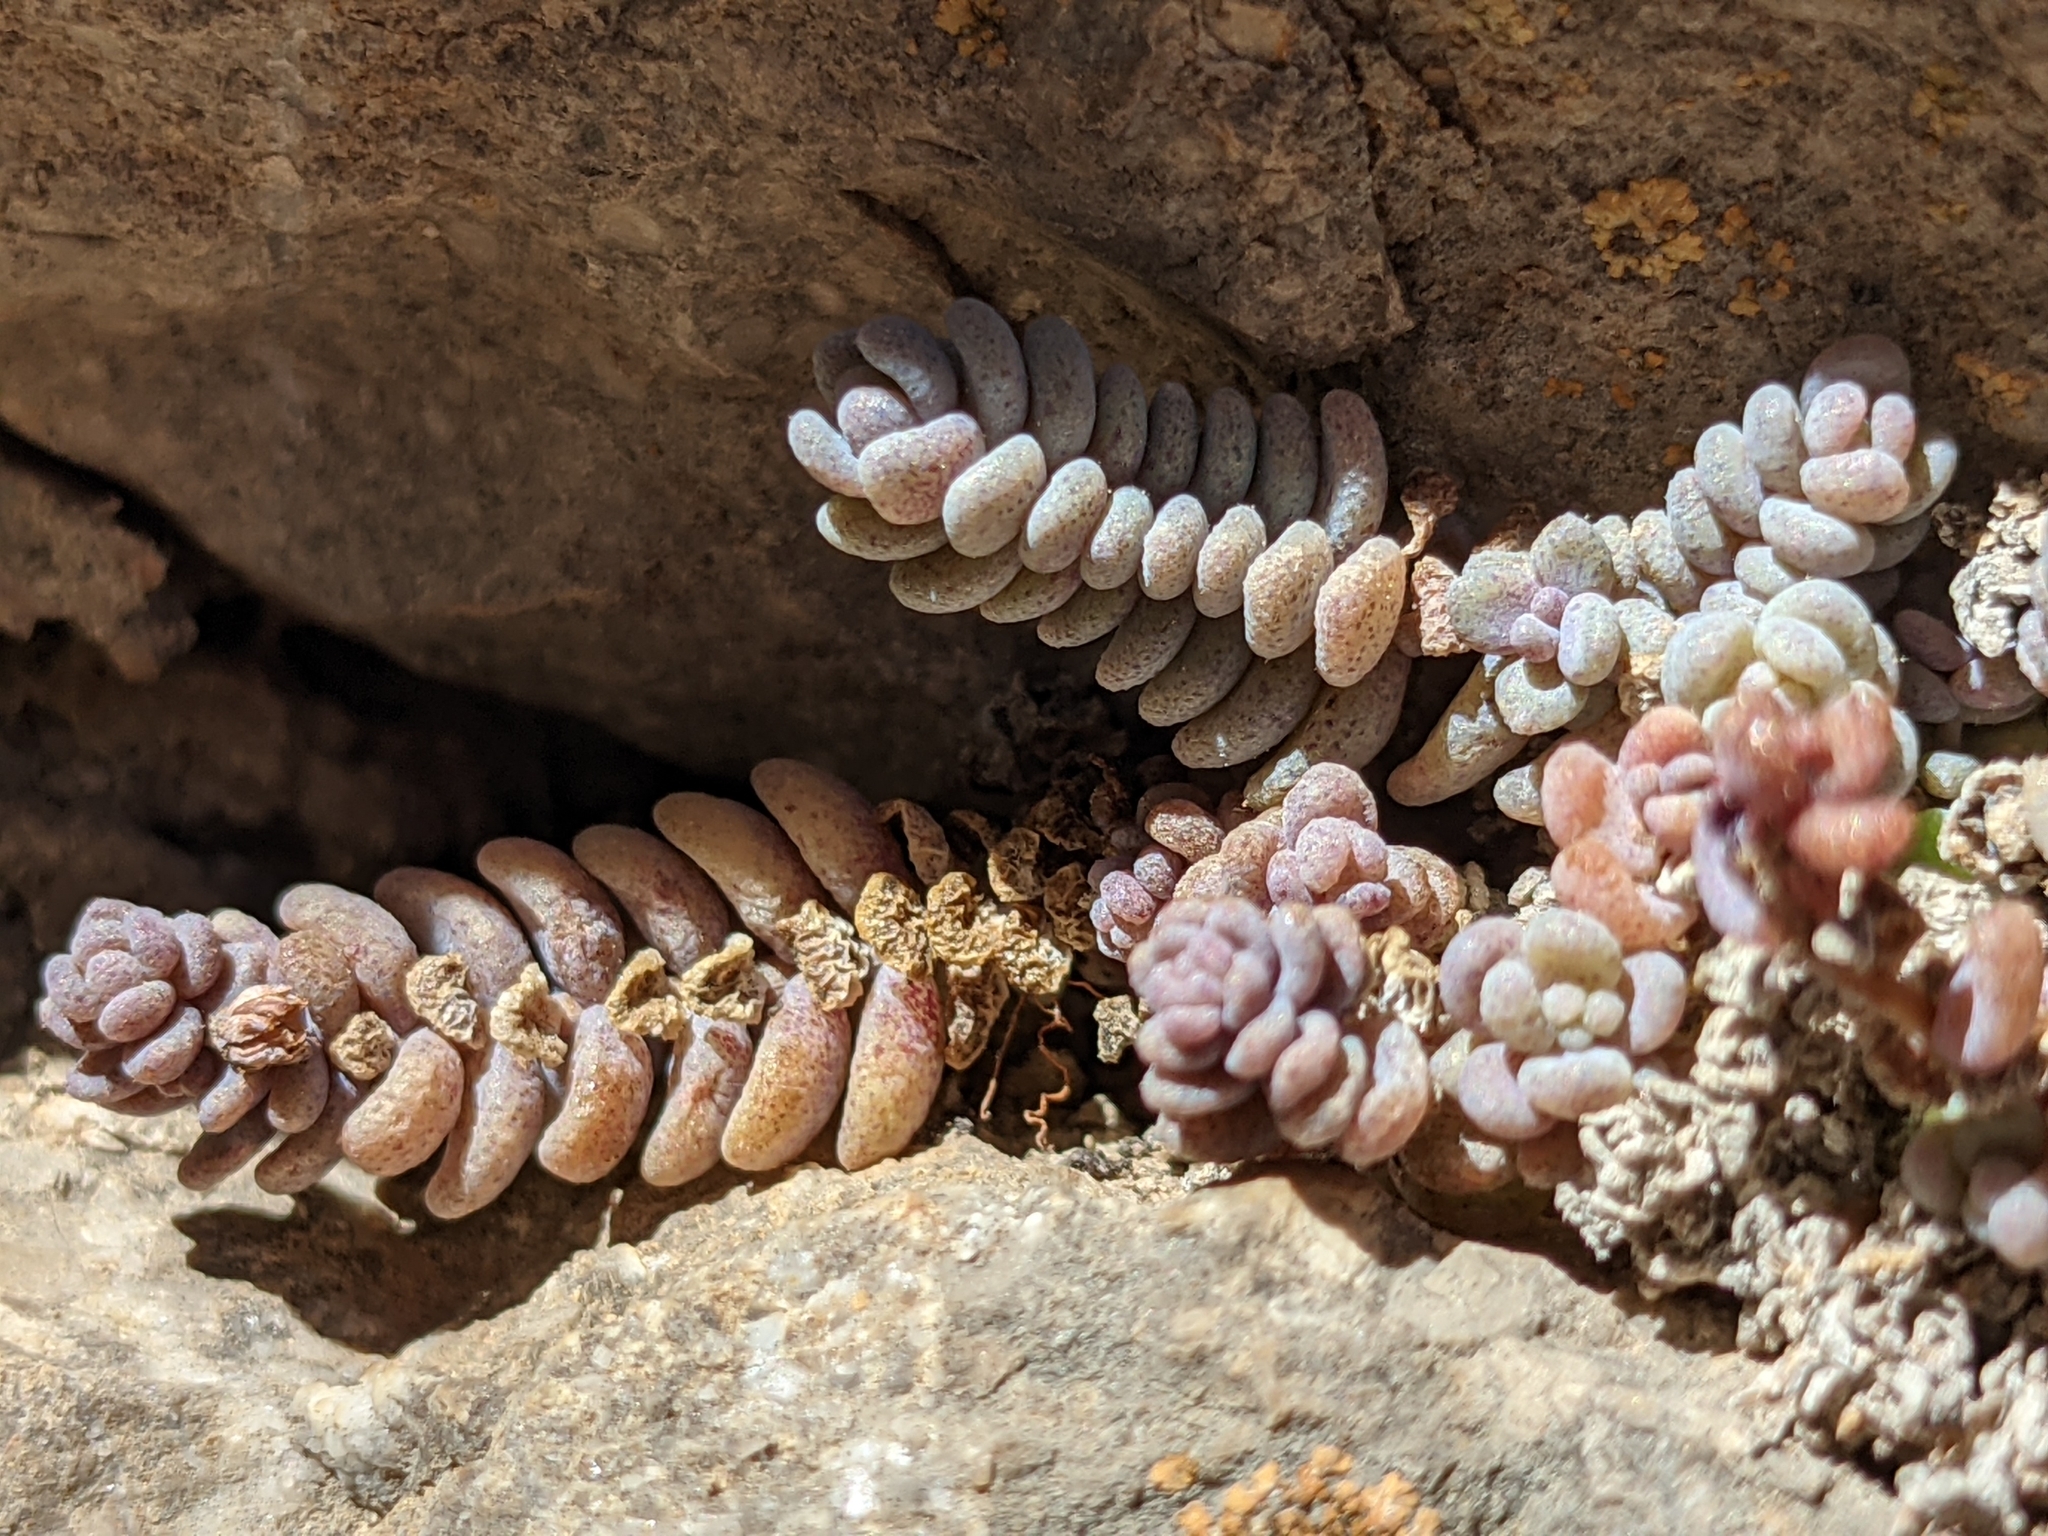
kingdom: Plantae
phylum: Tracheophyta
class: Magnoliopsida
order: Saxifragales
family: Crassulaceae
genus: Sedum
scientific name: Sedum dasyphyllum
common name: Thick-leaf stonecrop
